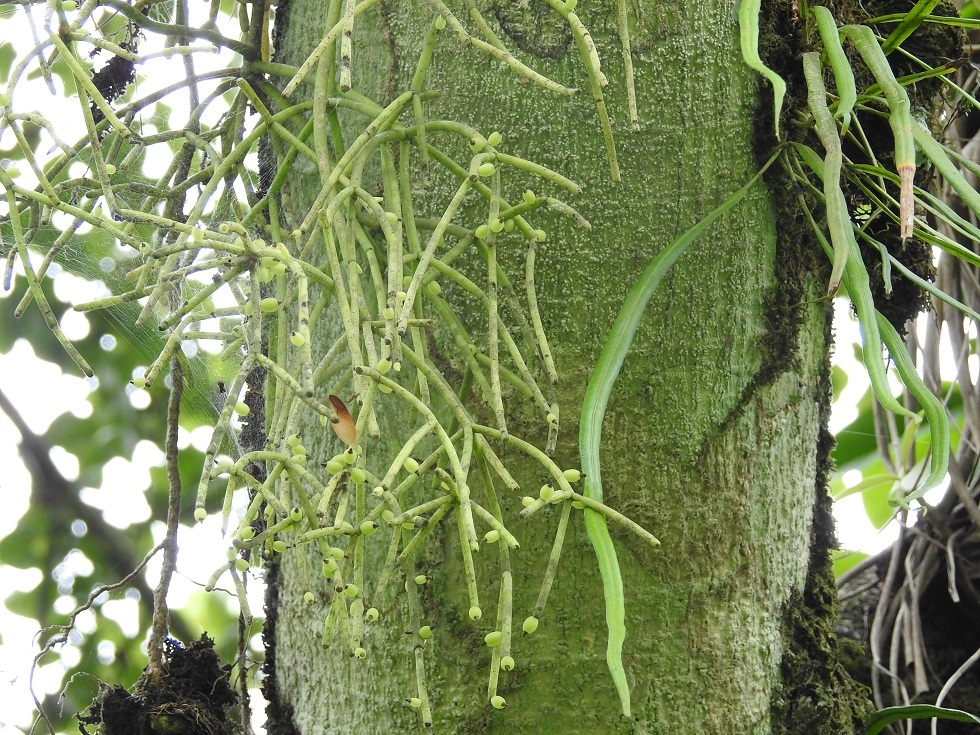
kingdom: Plantae
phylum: Tracheophyta
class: Magnoliopsida
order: Caryophyllales
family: Cactaceae
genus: Rhipsalis
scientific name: Rhipsalis baccifera
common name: Mistletoe cactus
